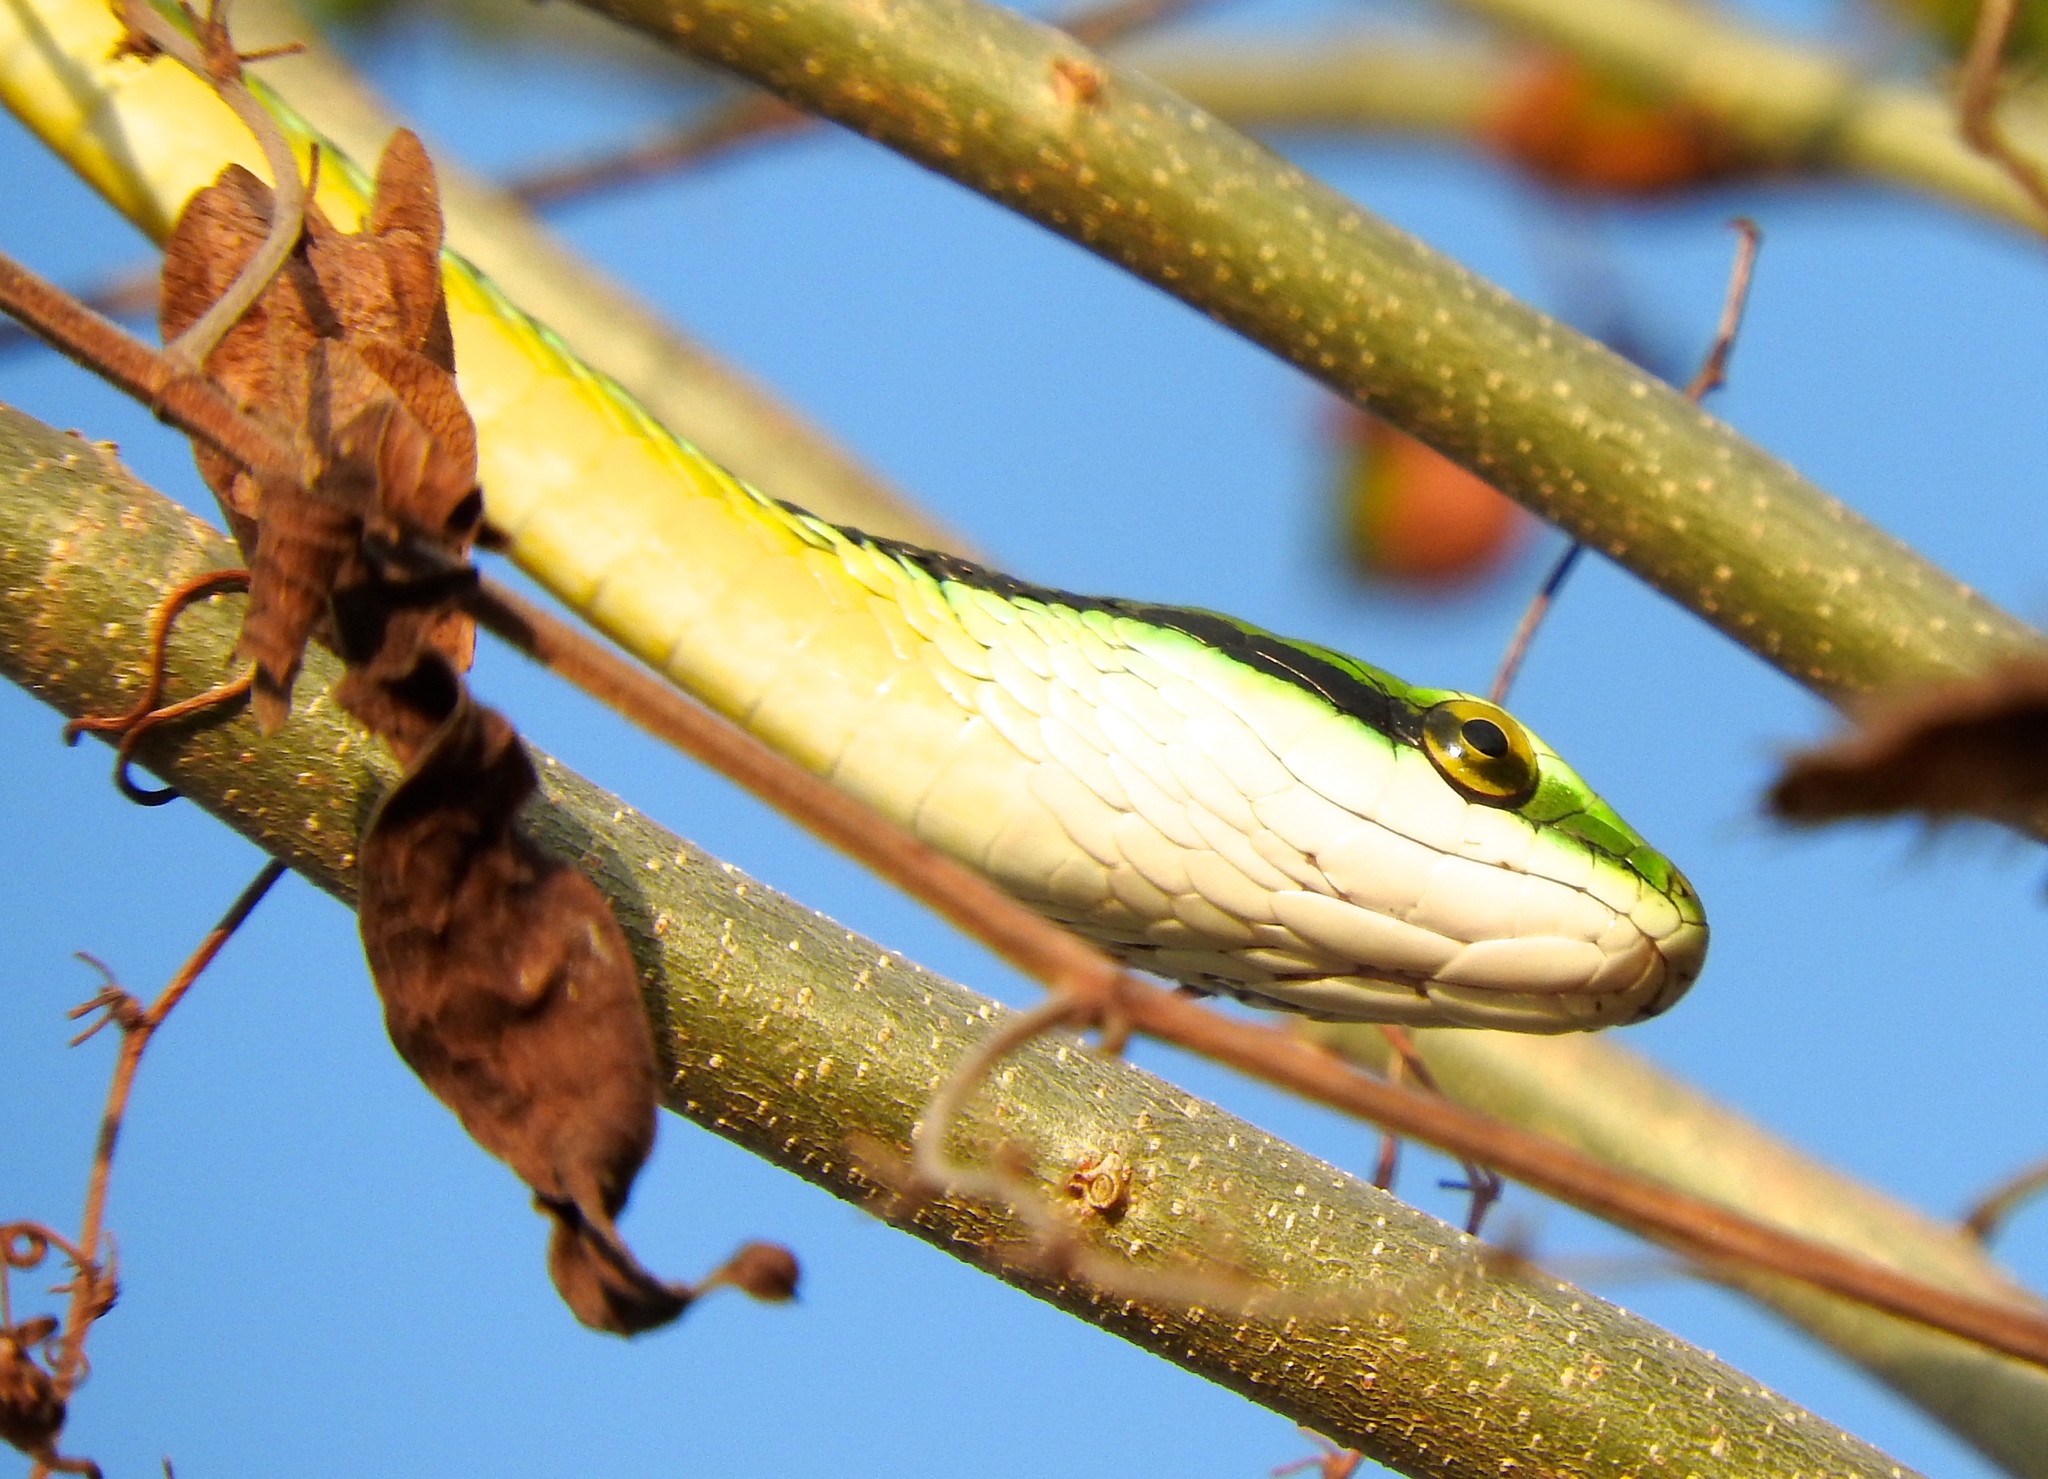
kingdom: Animalia
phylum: Chordata
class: Squamata
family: Colubridae
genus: Leptophis
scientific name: Leptophis diplotropis
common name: Pacific coast parrot snake
